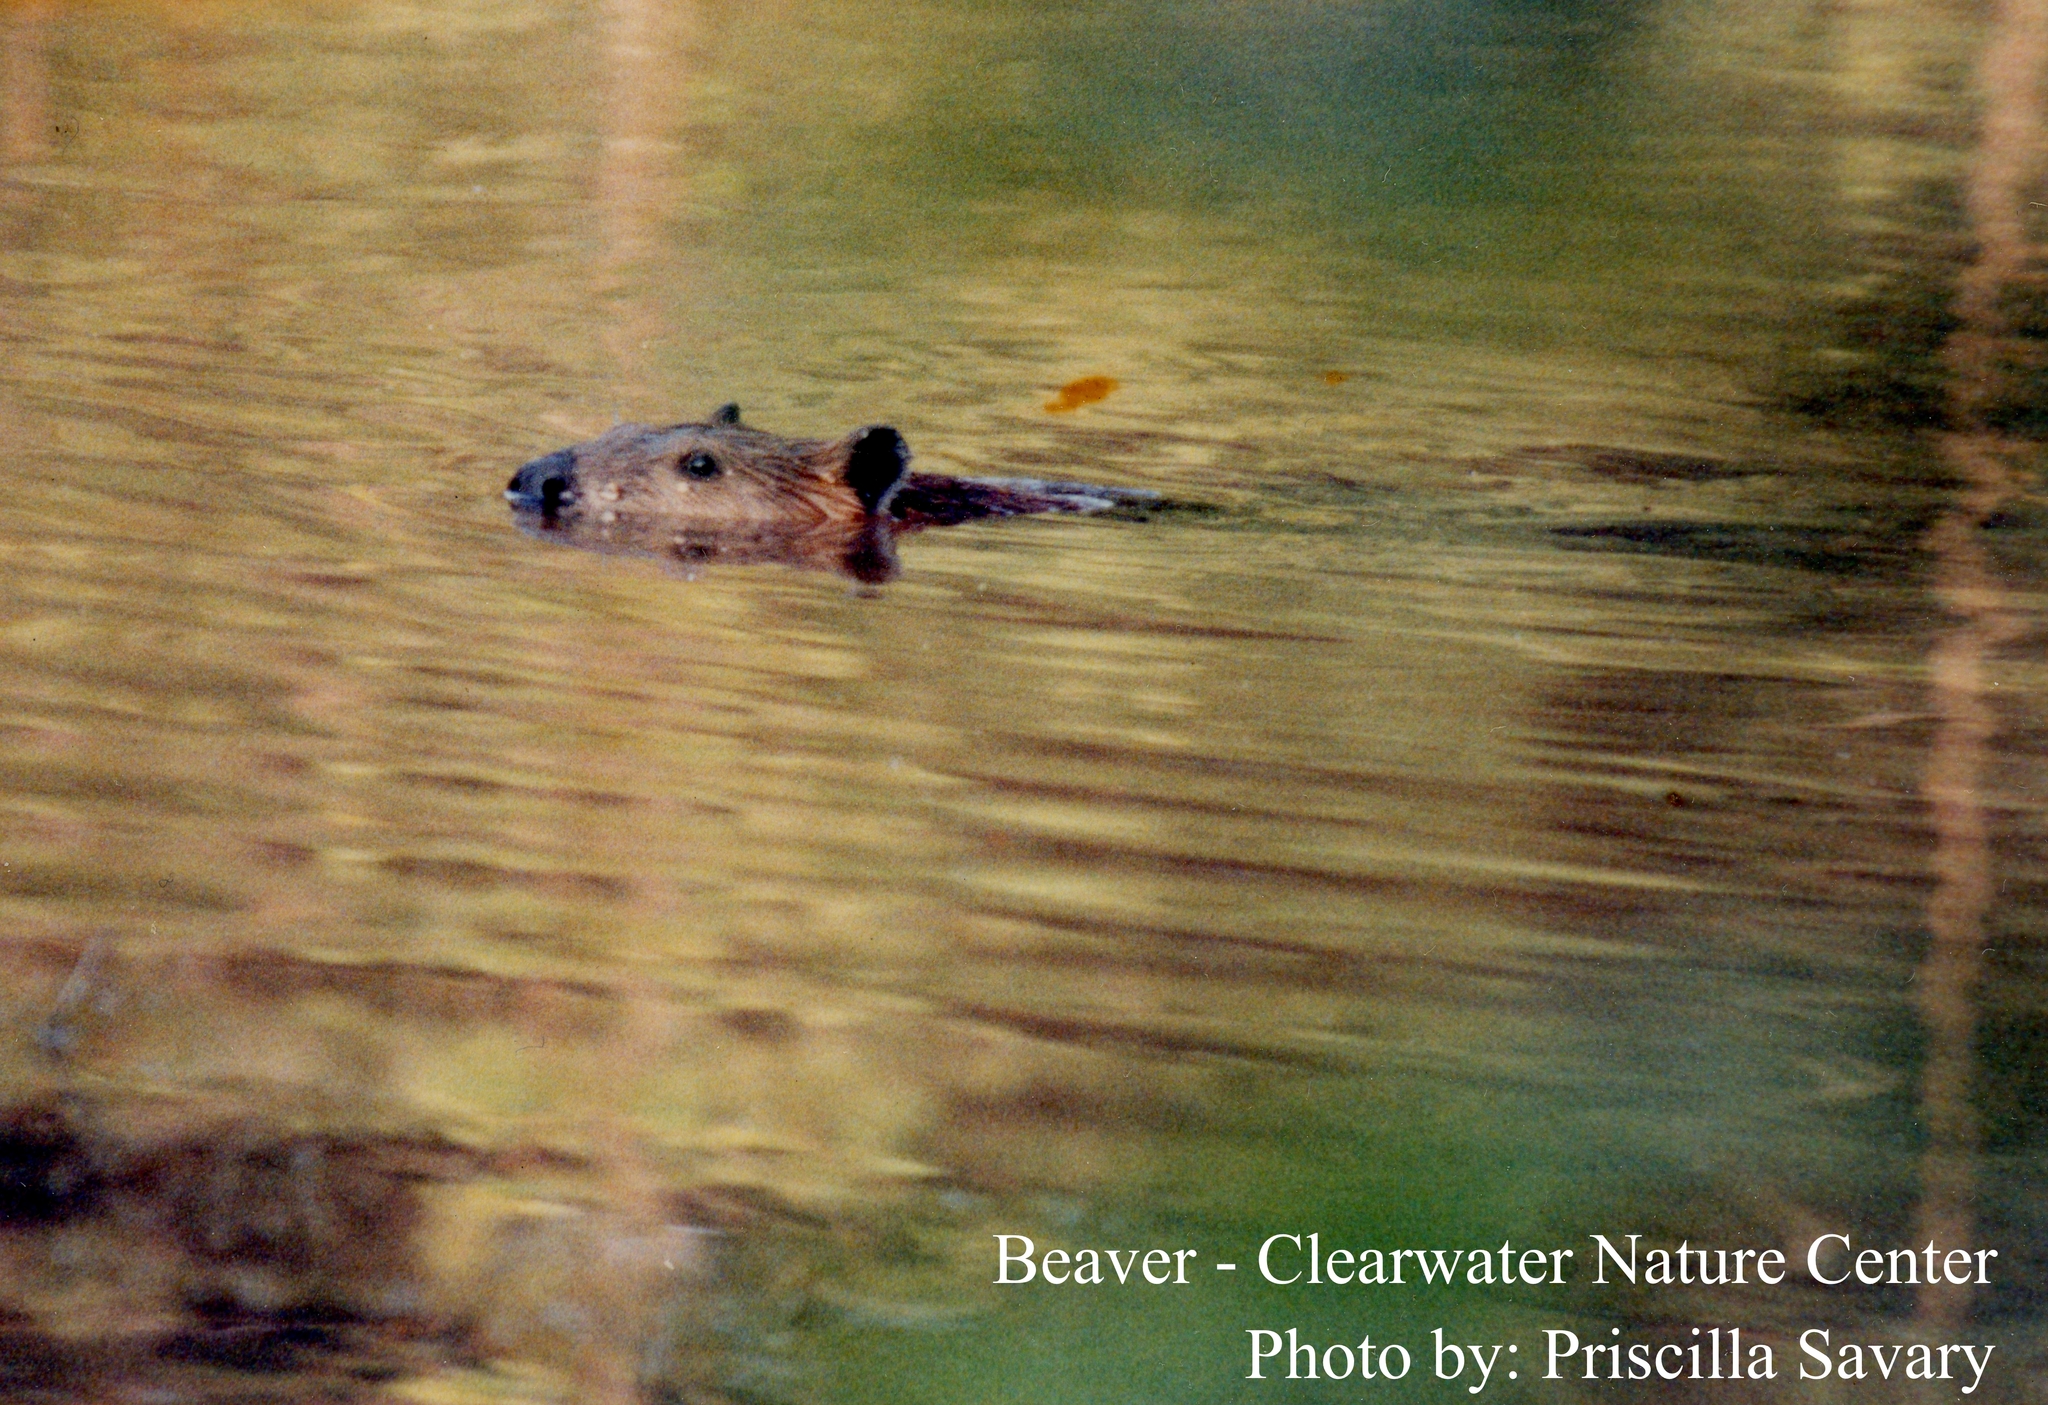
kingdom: Animalia
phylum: Chordata
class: Mammalia
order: Rodentia
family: Castoridae
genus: Castor
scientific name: Castor canadensis
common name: American beaver
